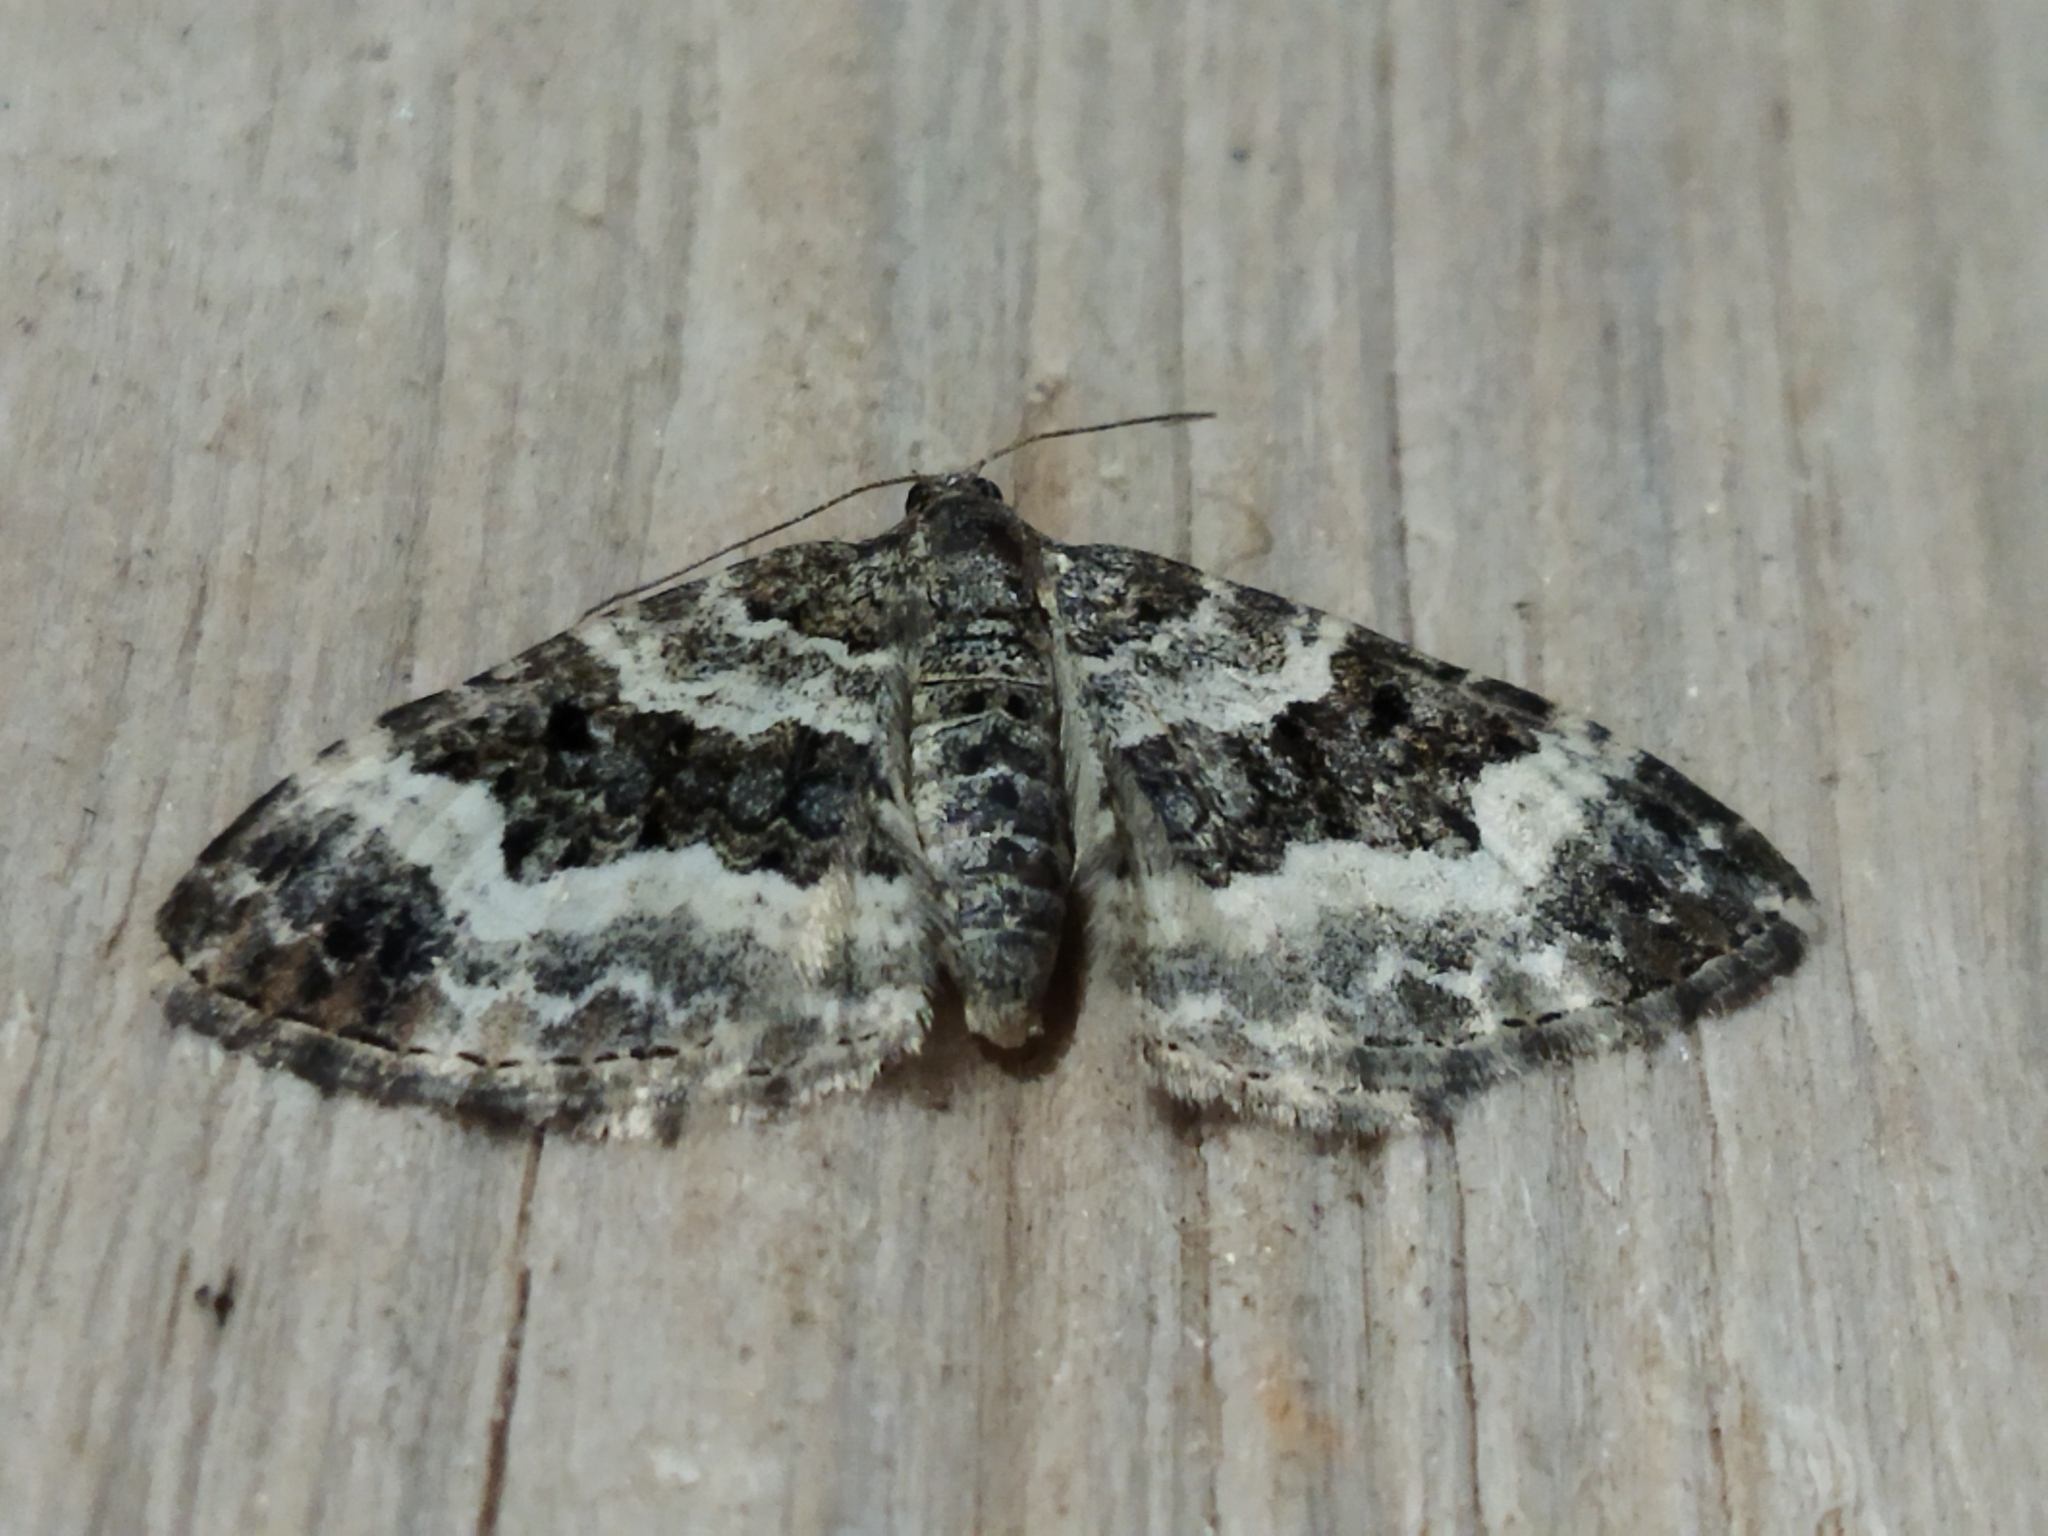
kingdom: Animalia
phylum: Arthropoda
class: Insecta
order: Lepidoptera
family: Geometridae
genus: Epirrhoe
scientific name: Epirrhoe alternata
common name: Common carpet
